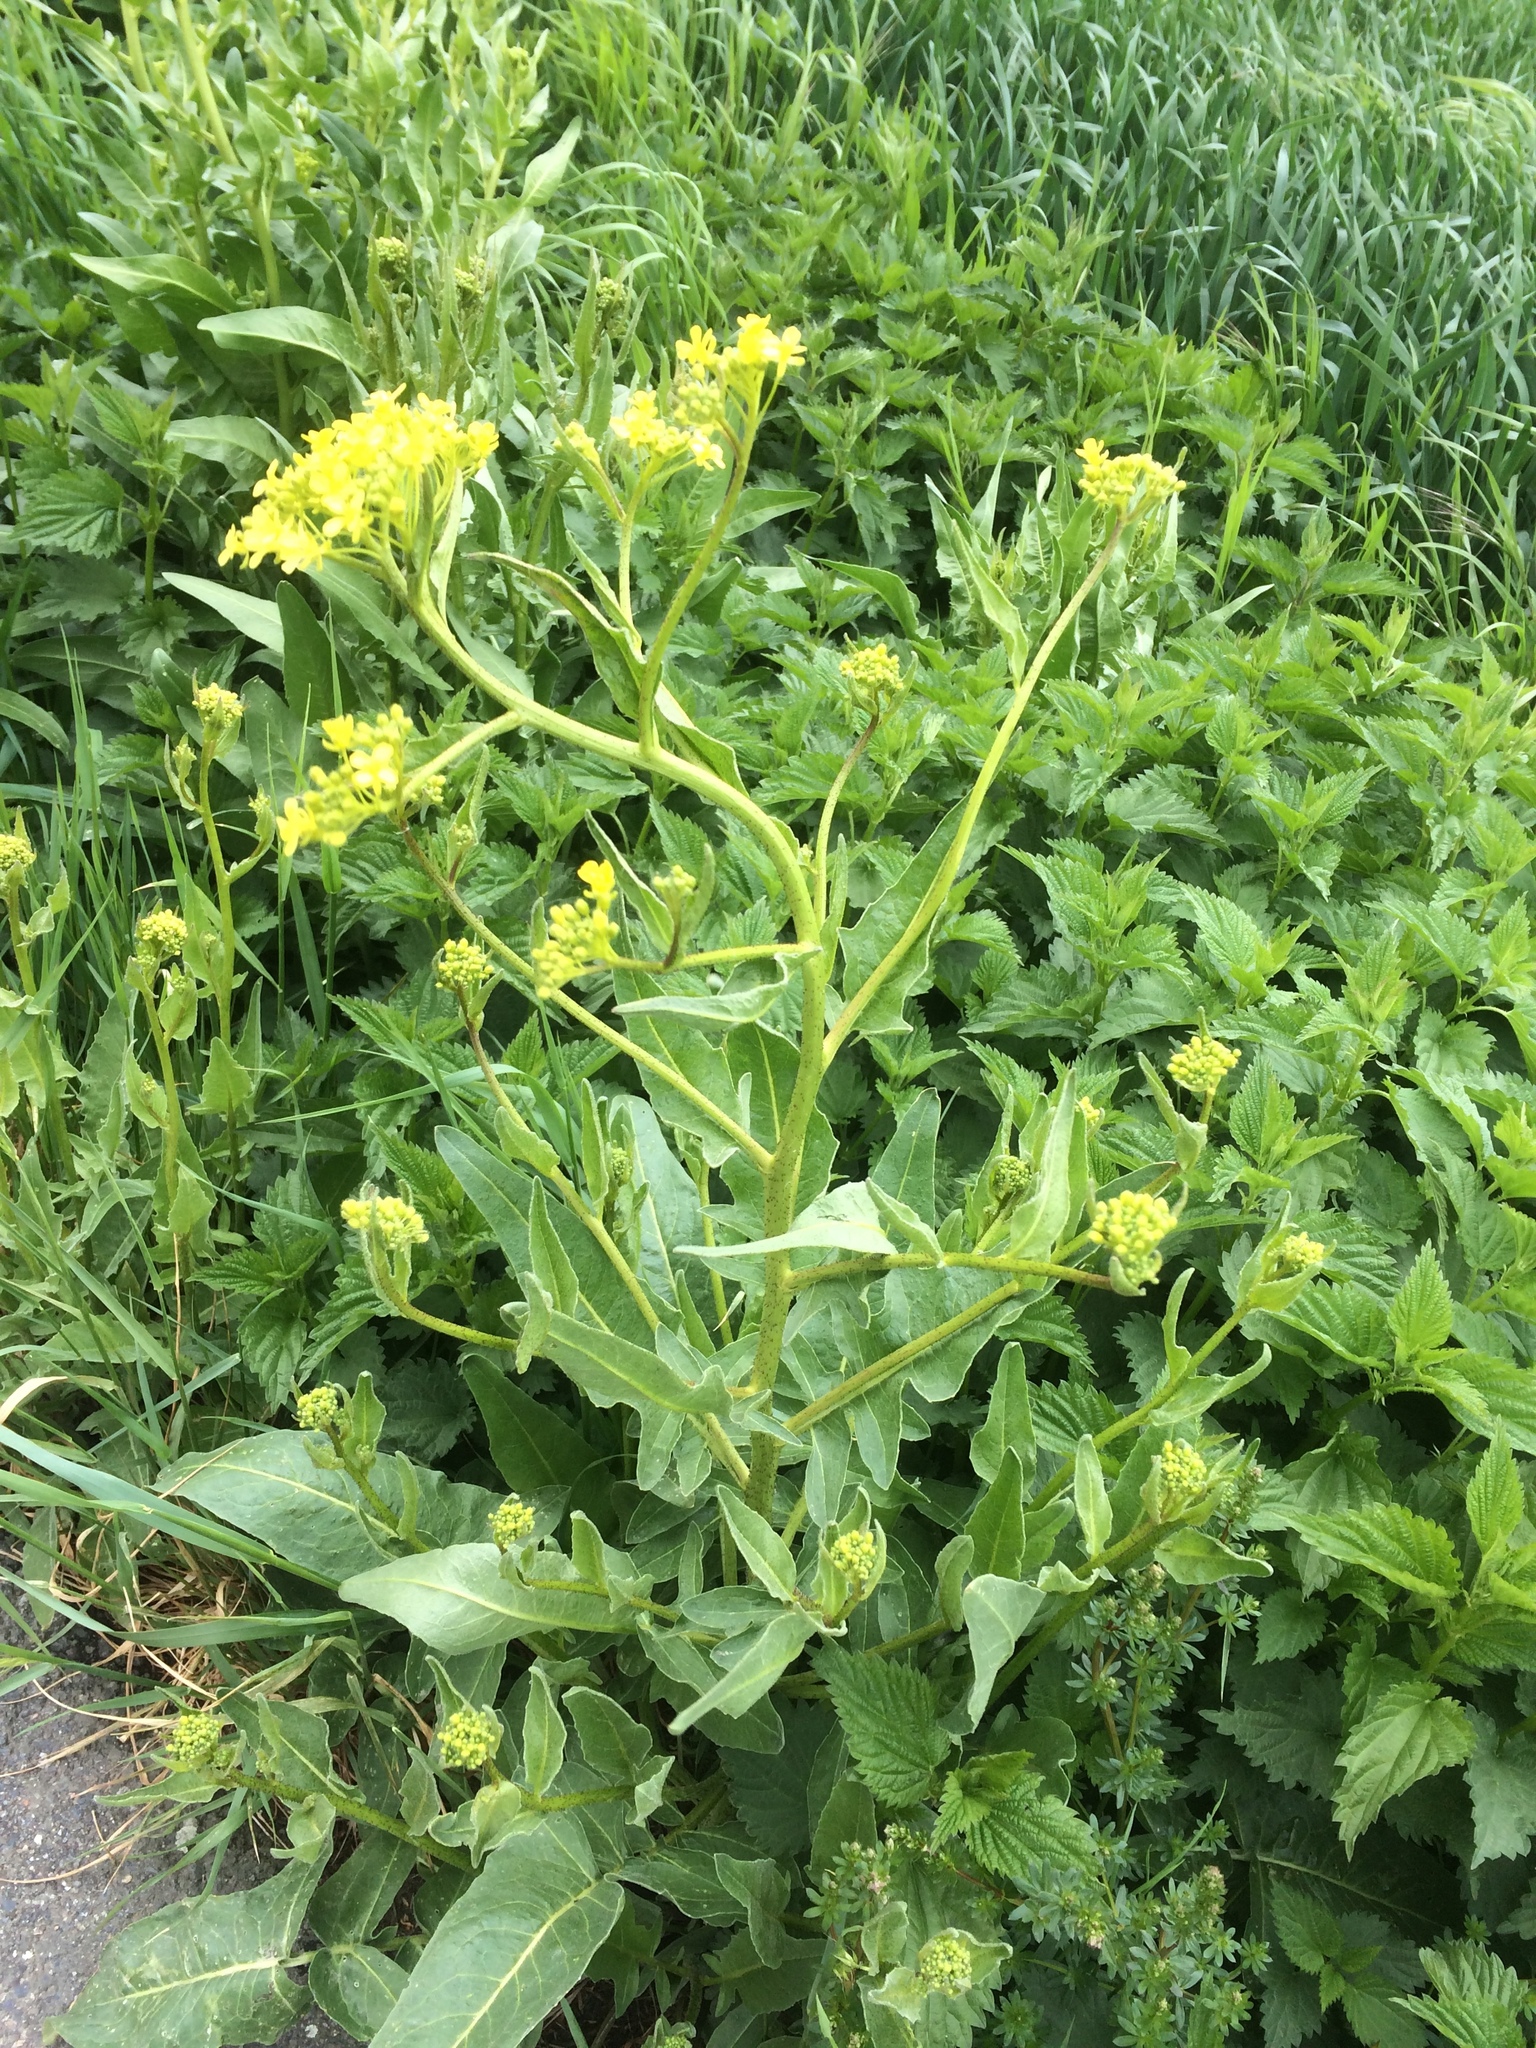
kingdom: Plantae
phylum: Tracheophyta
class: Magnoliopsida
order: Brassicales
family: Brassicaceae
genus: Bunias
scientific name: Bunias orientalis
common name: Warty-cabbage
